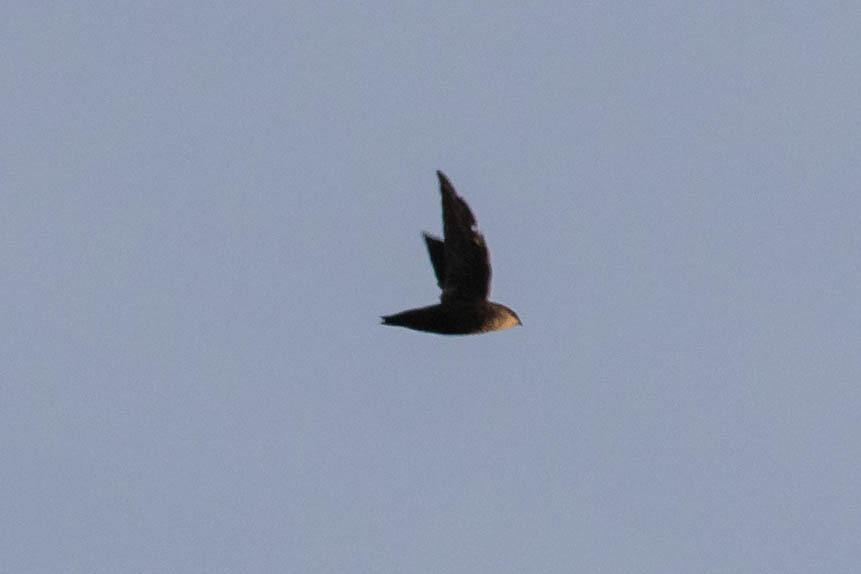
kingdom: Animalia
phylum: Chordata
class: Aves
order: Apodiformes
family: Apodidae
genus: Chaetura
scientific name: Chaetura pelagica
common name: Chimney swift
